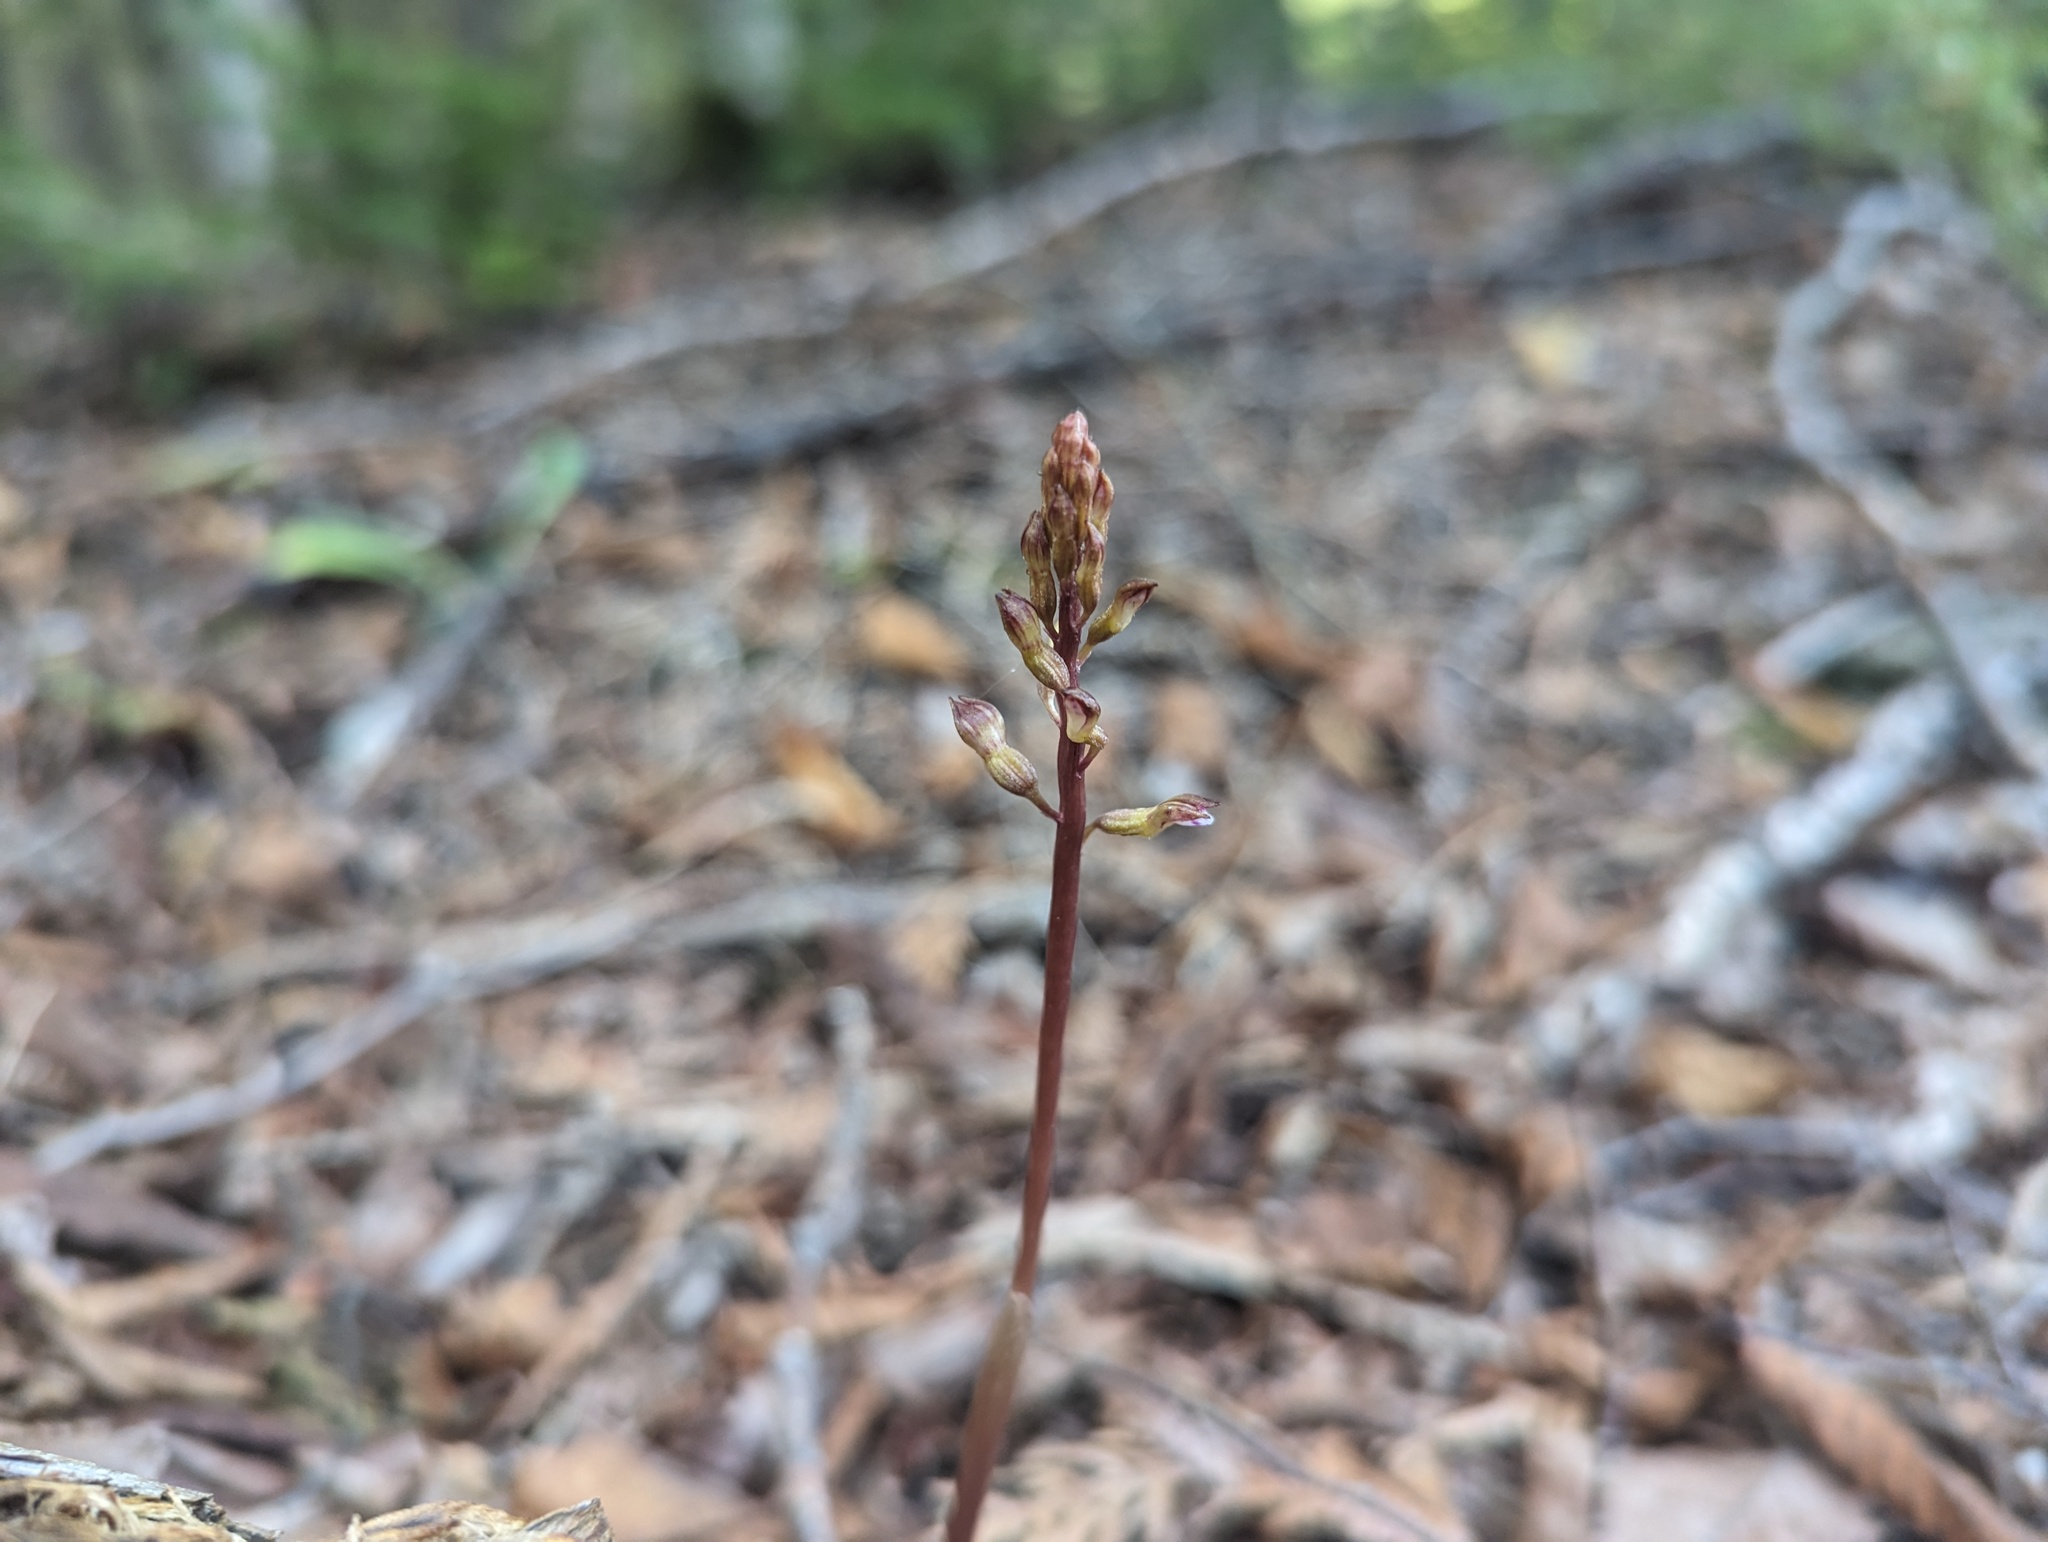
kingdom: Plantae
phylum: Tracheophyta
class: Liliopsida
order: Asparagales
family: Orchidaceae
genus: Corallorhiza
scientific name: Corallorhiza odontorhiza
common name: Autumn coralroot
